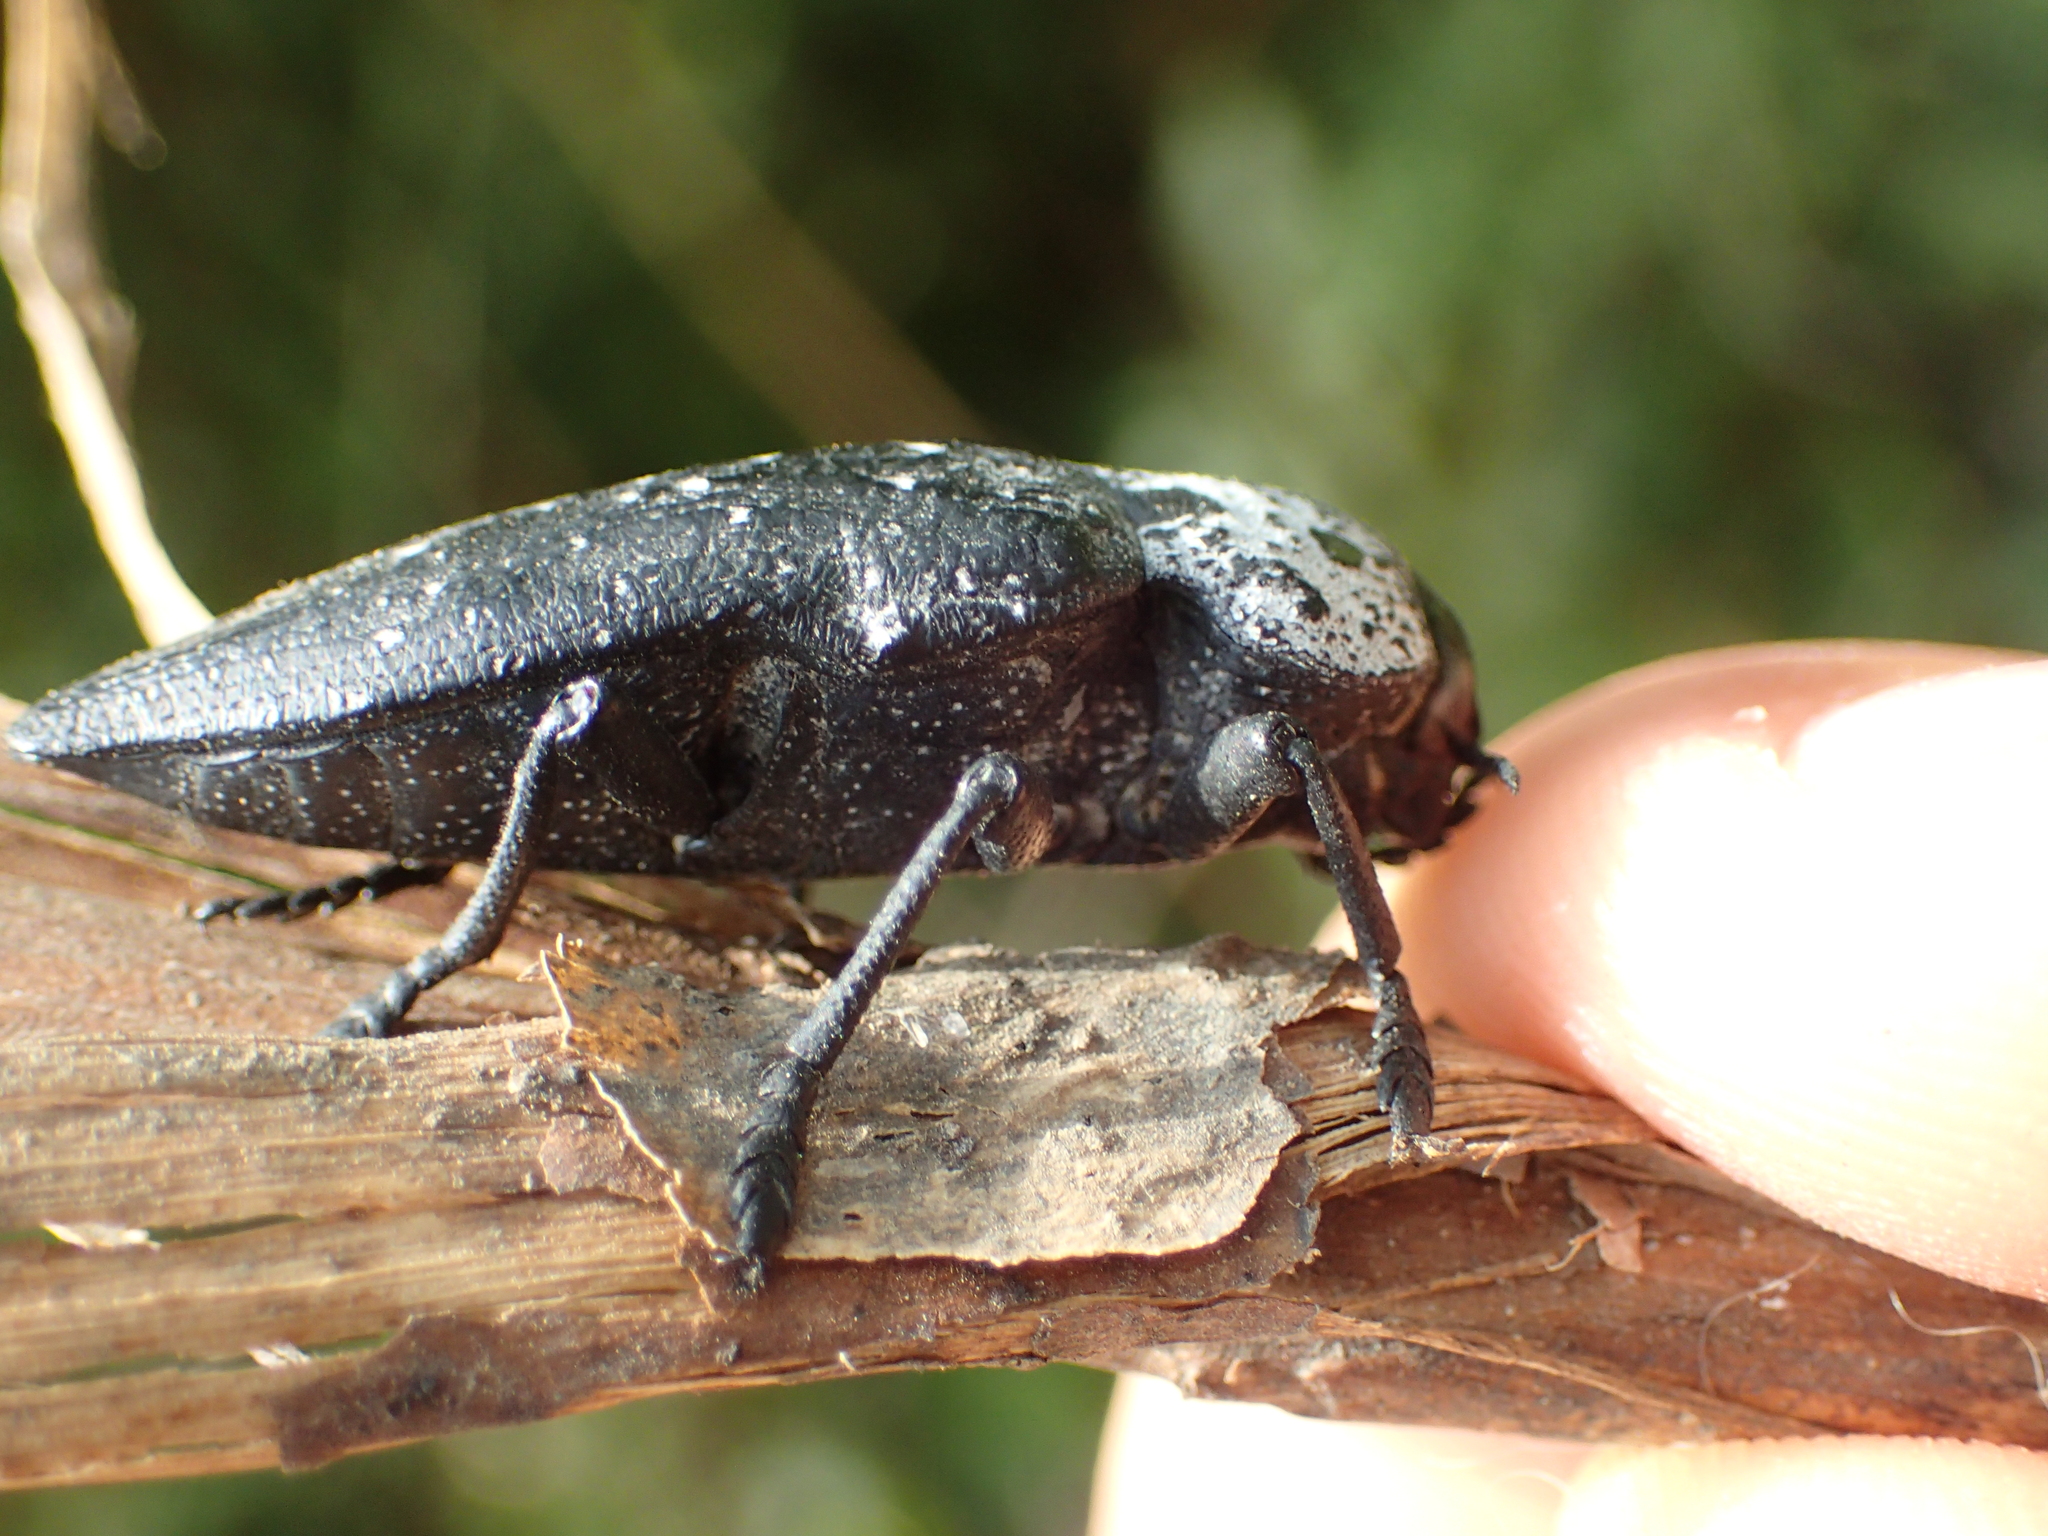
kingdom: Animalia
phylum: Arthropoda
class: Insecta
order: Coleoptera
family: Buprestidae
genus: Capnodis
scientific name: Capnodis tenebrionis
